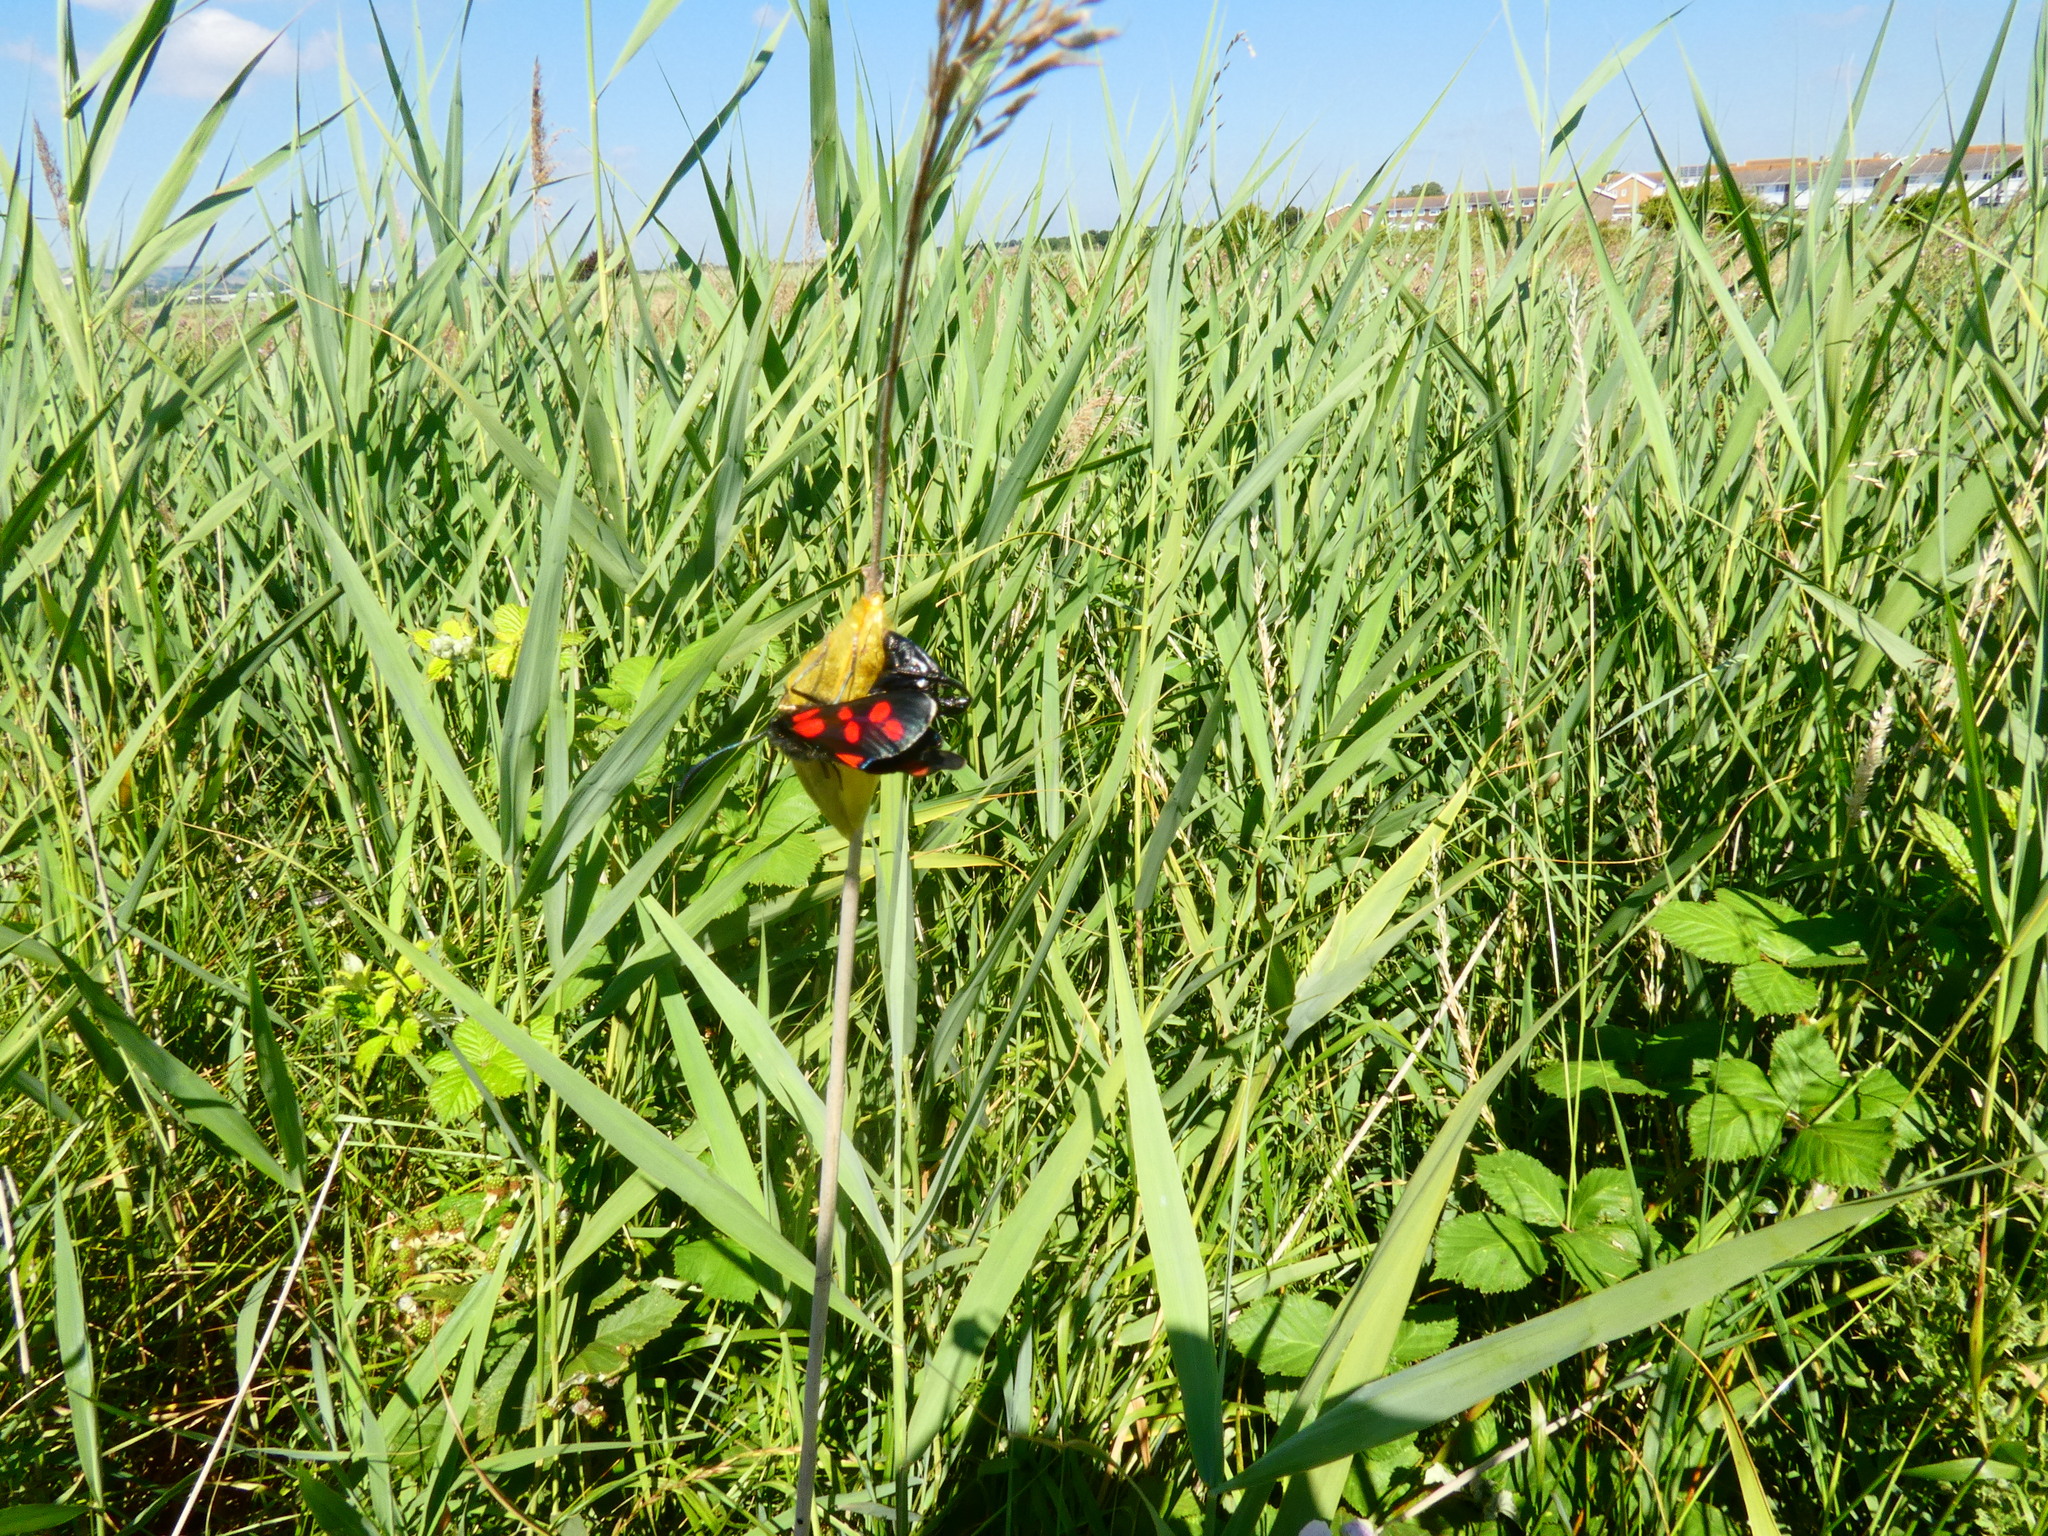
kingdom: Animalia
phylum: Arthropoda
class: Insecta
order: Lepidoptera
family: Zygaenidae
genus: Zygaena
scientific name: Zygaena filipendulae
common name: Six-spot burnet
